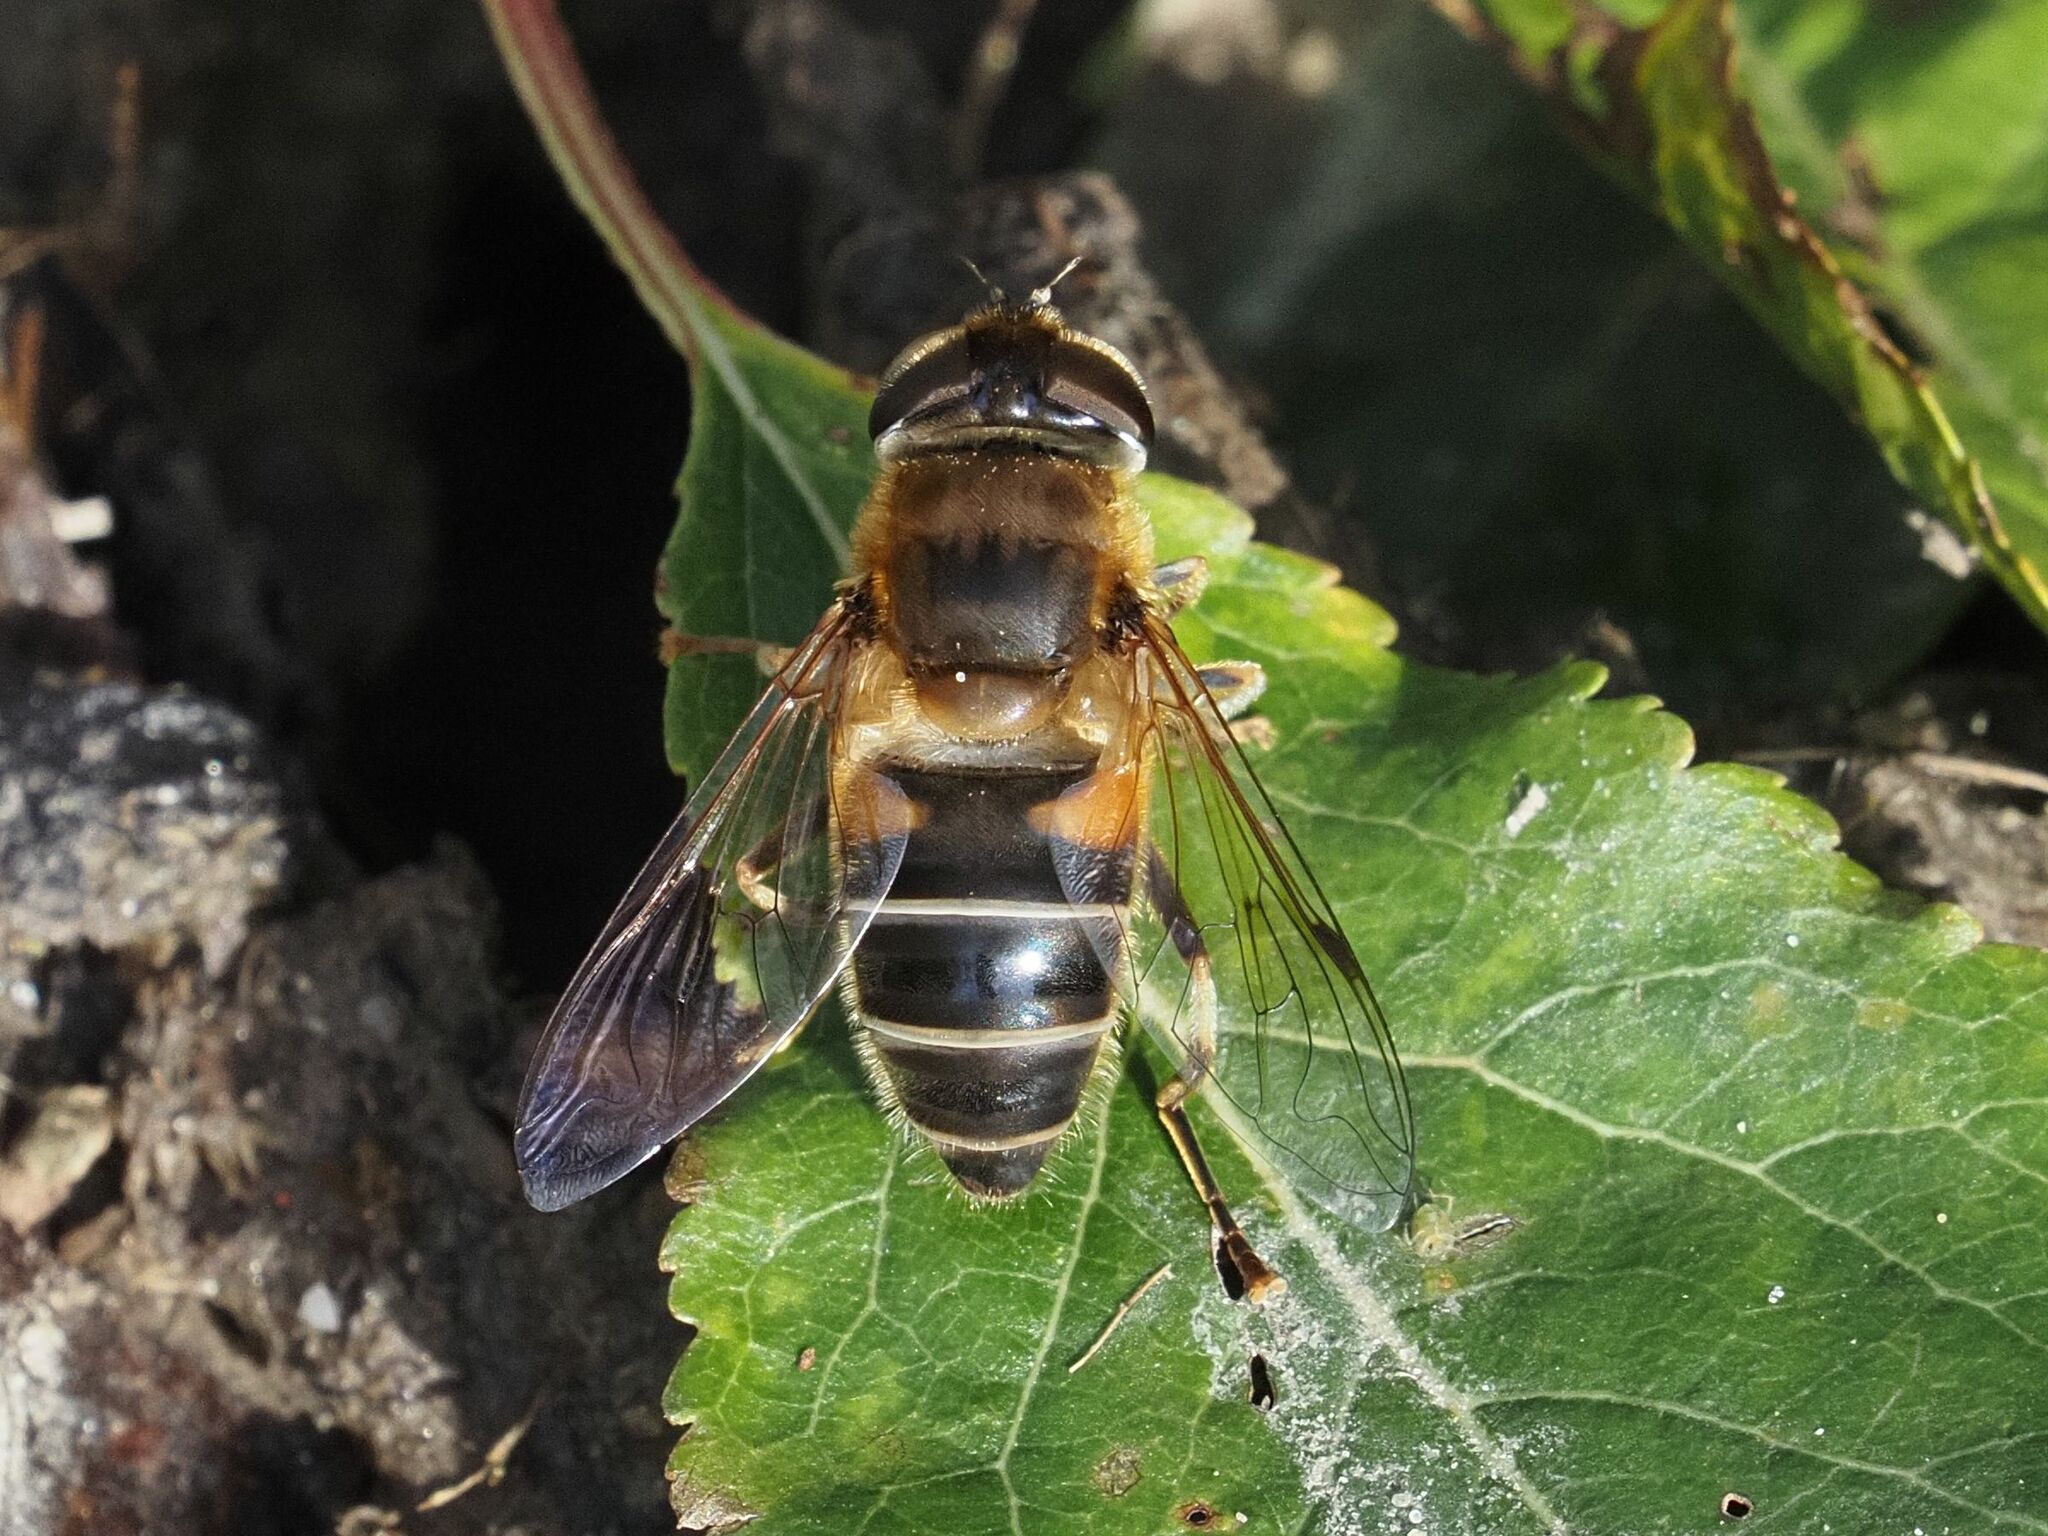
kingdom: Animalia
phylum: Arthropoda
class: Insecta
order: Diptera
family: Syrphidae
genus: Eristalis
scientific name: Eristalis pertinax
